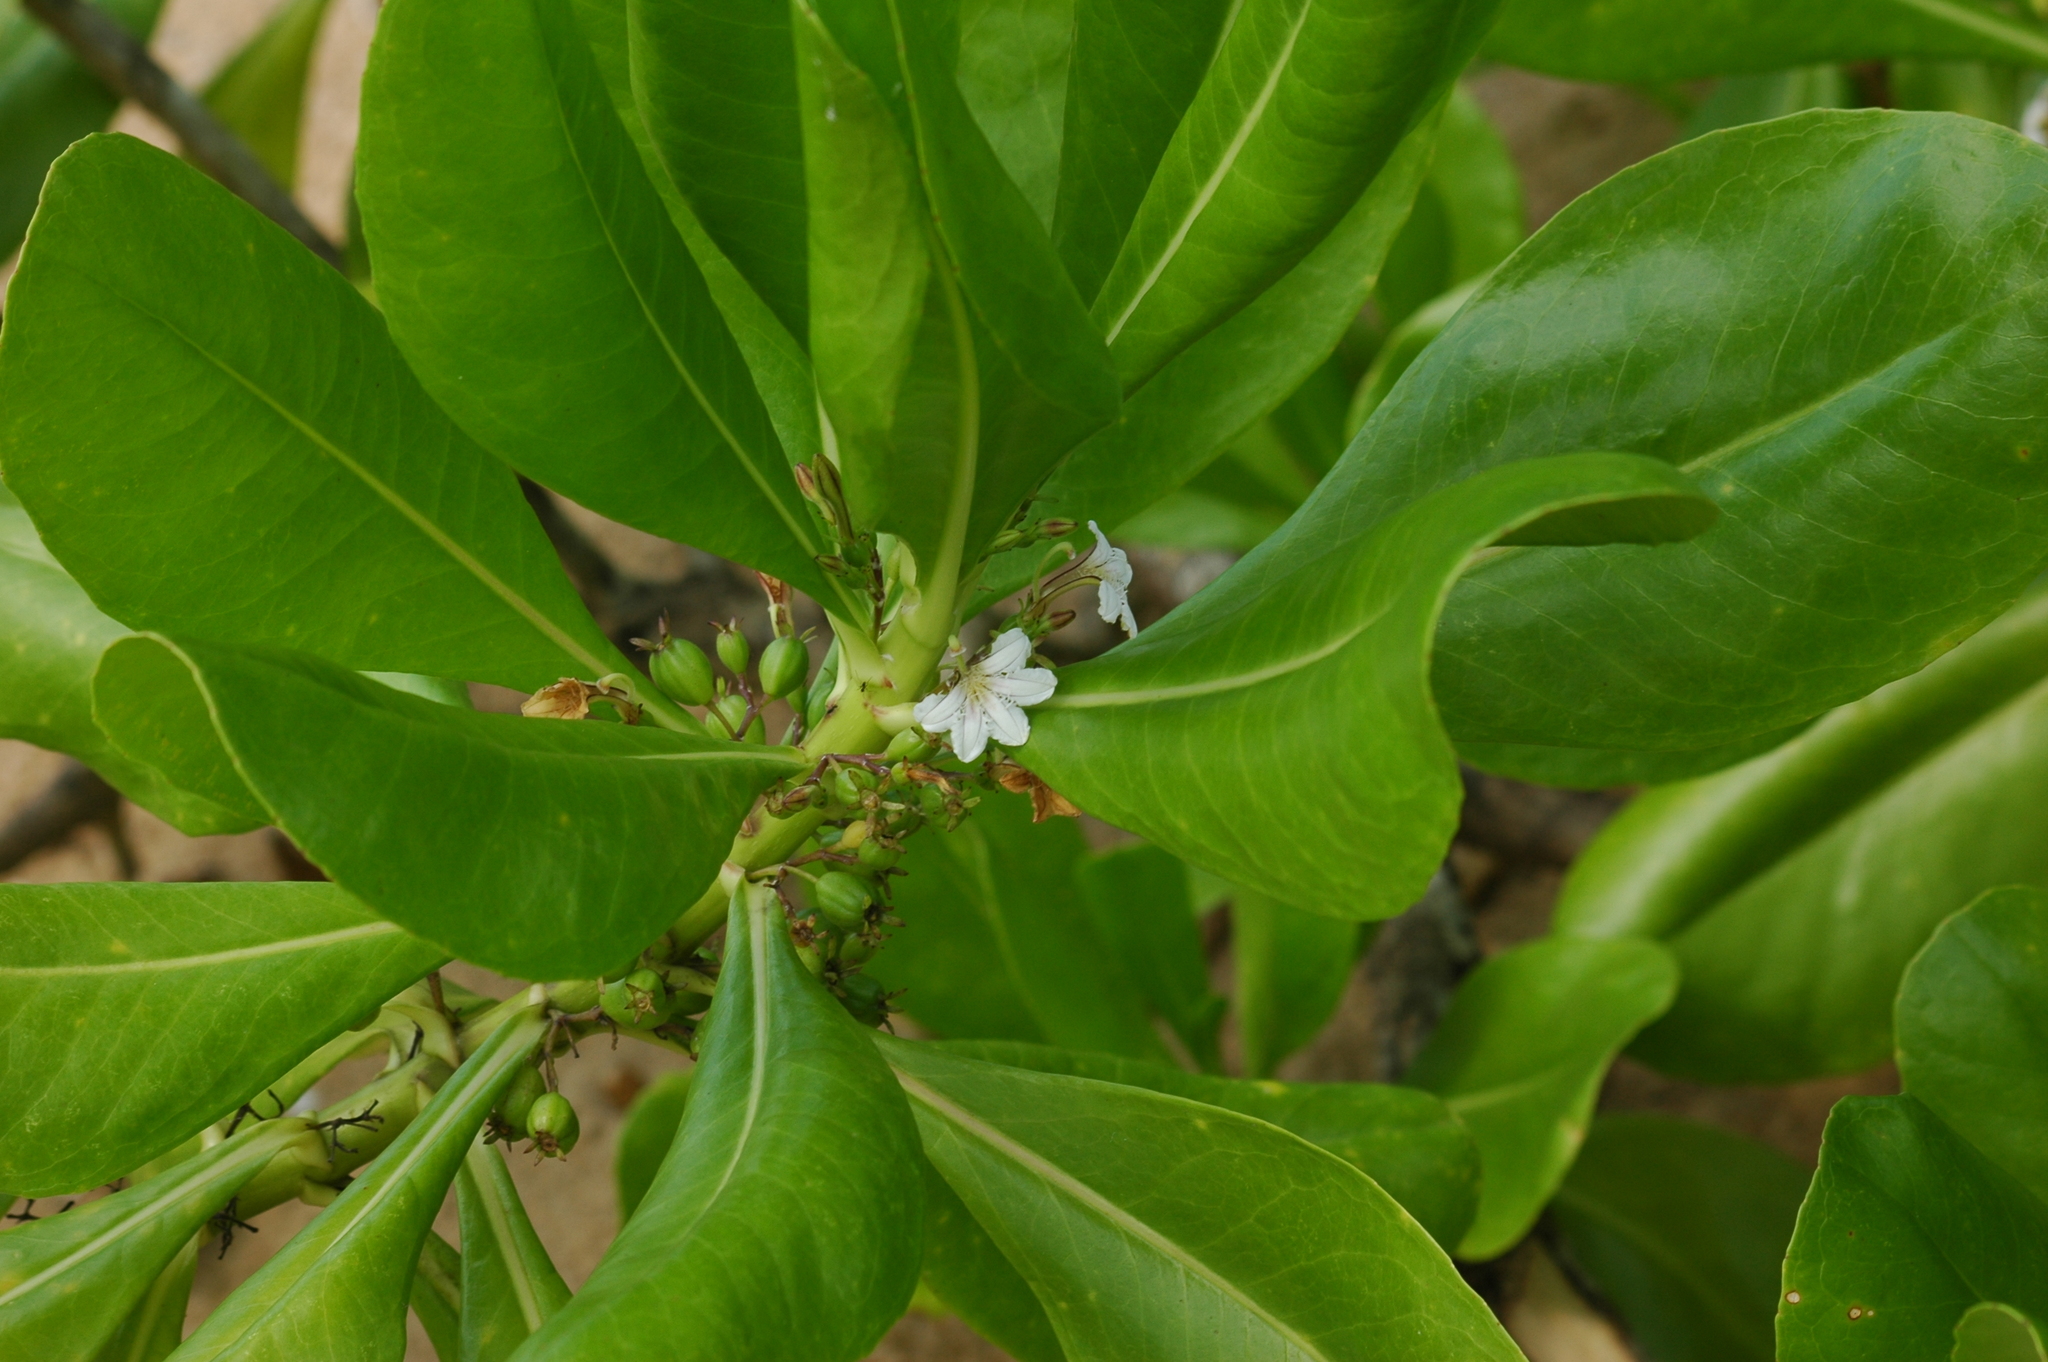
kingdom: Plantae
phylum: Tracheophyta
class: Magnoliopsida
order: Asterales
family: Goodeniaceae
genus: Scaevola
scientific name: Scaevola taccada
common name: Sea lettucetree
